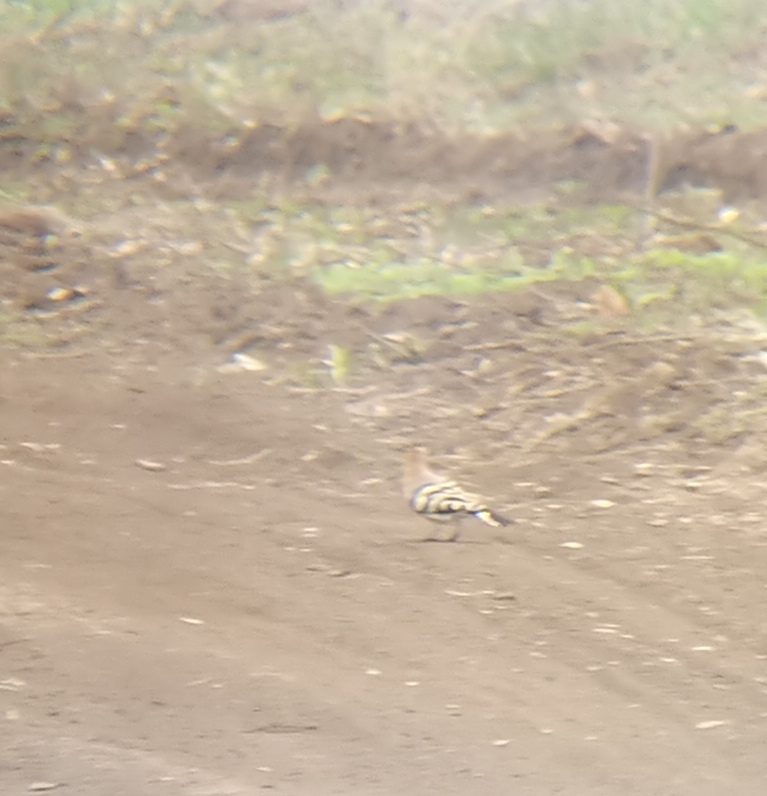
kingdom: Animalia
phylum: Chordata
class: Aves
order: Bucerotiformes
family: Upupidae
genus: Upupa
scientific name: Upupa epops
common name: Eurasian hoopoe
